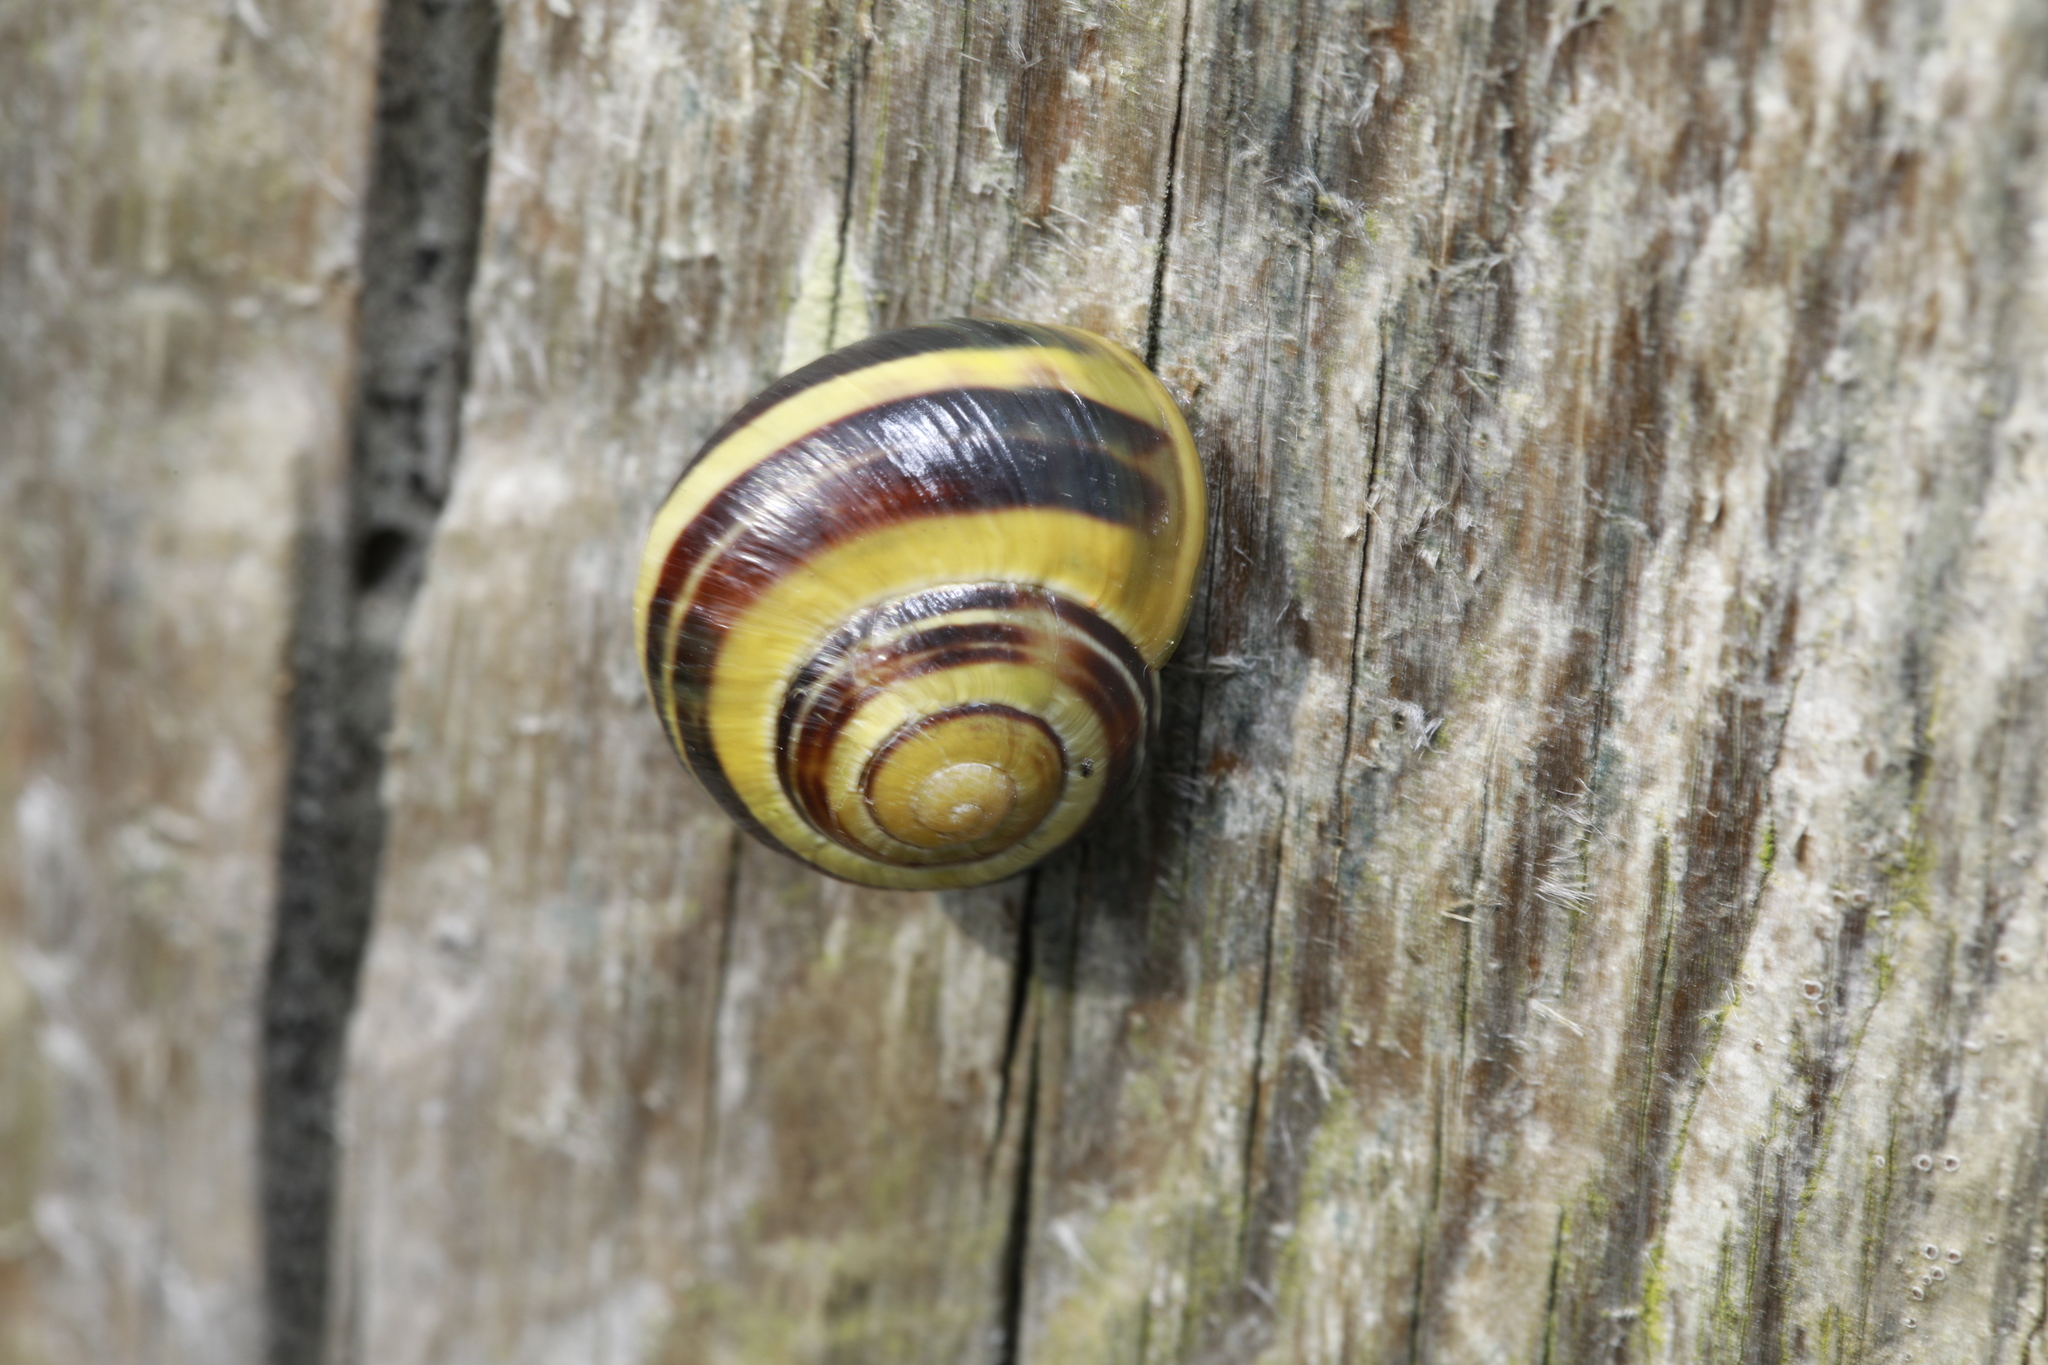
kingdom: Animalia
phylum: Mollusca
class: Gastropoda
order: Stylommatophora
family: Helicidae
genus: Cepaea
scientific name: Cepaea nemoralis
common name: Grovesnail
